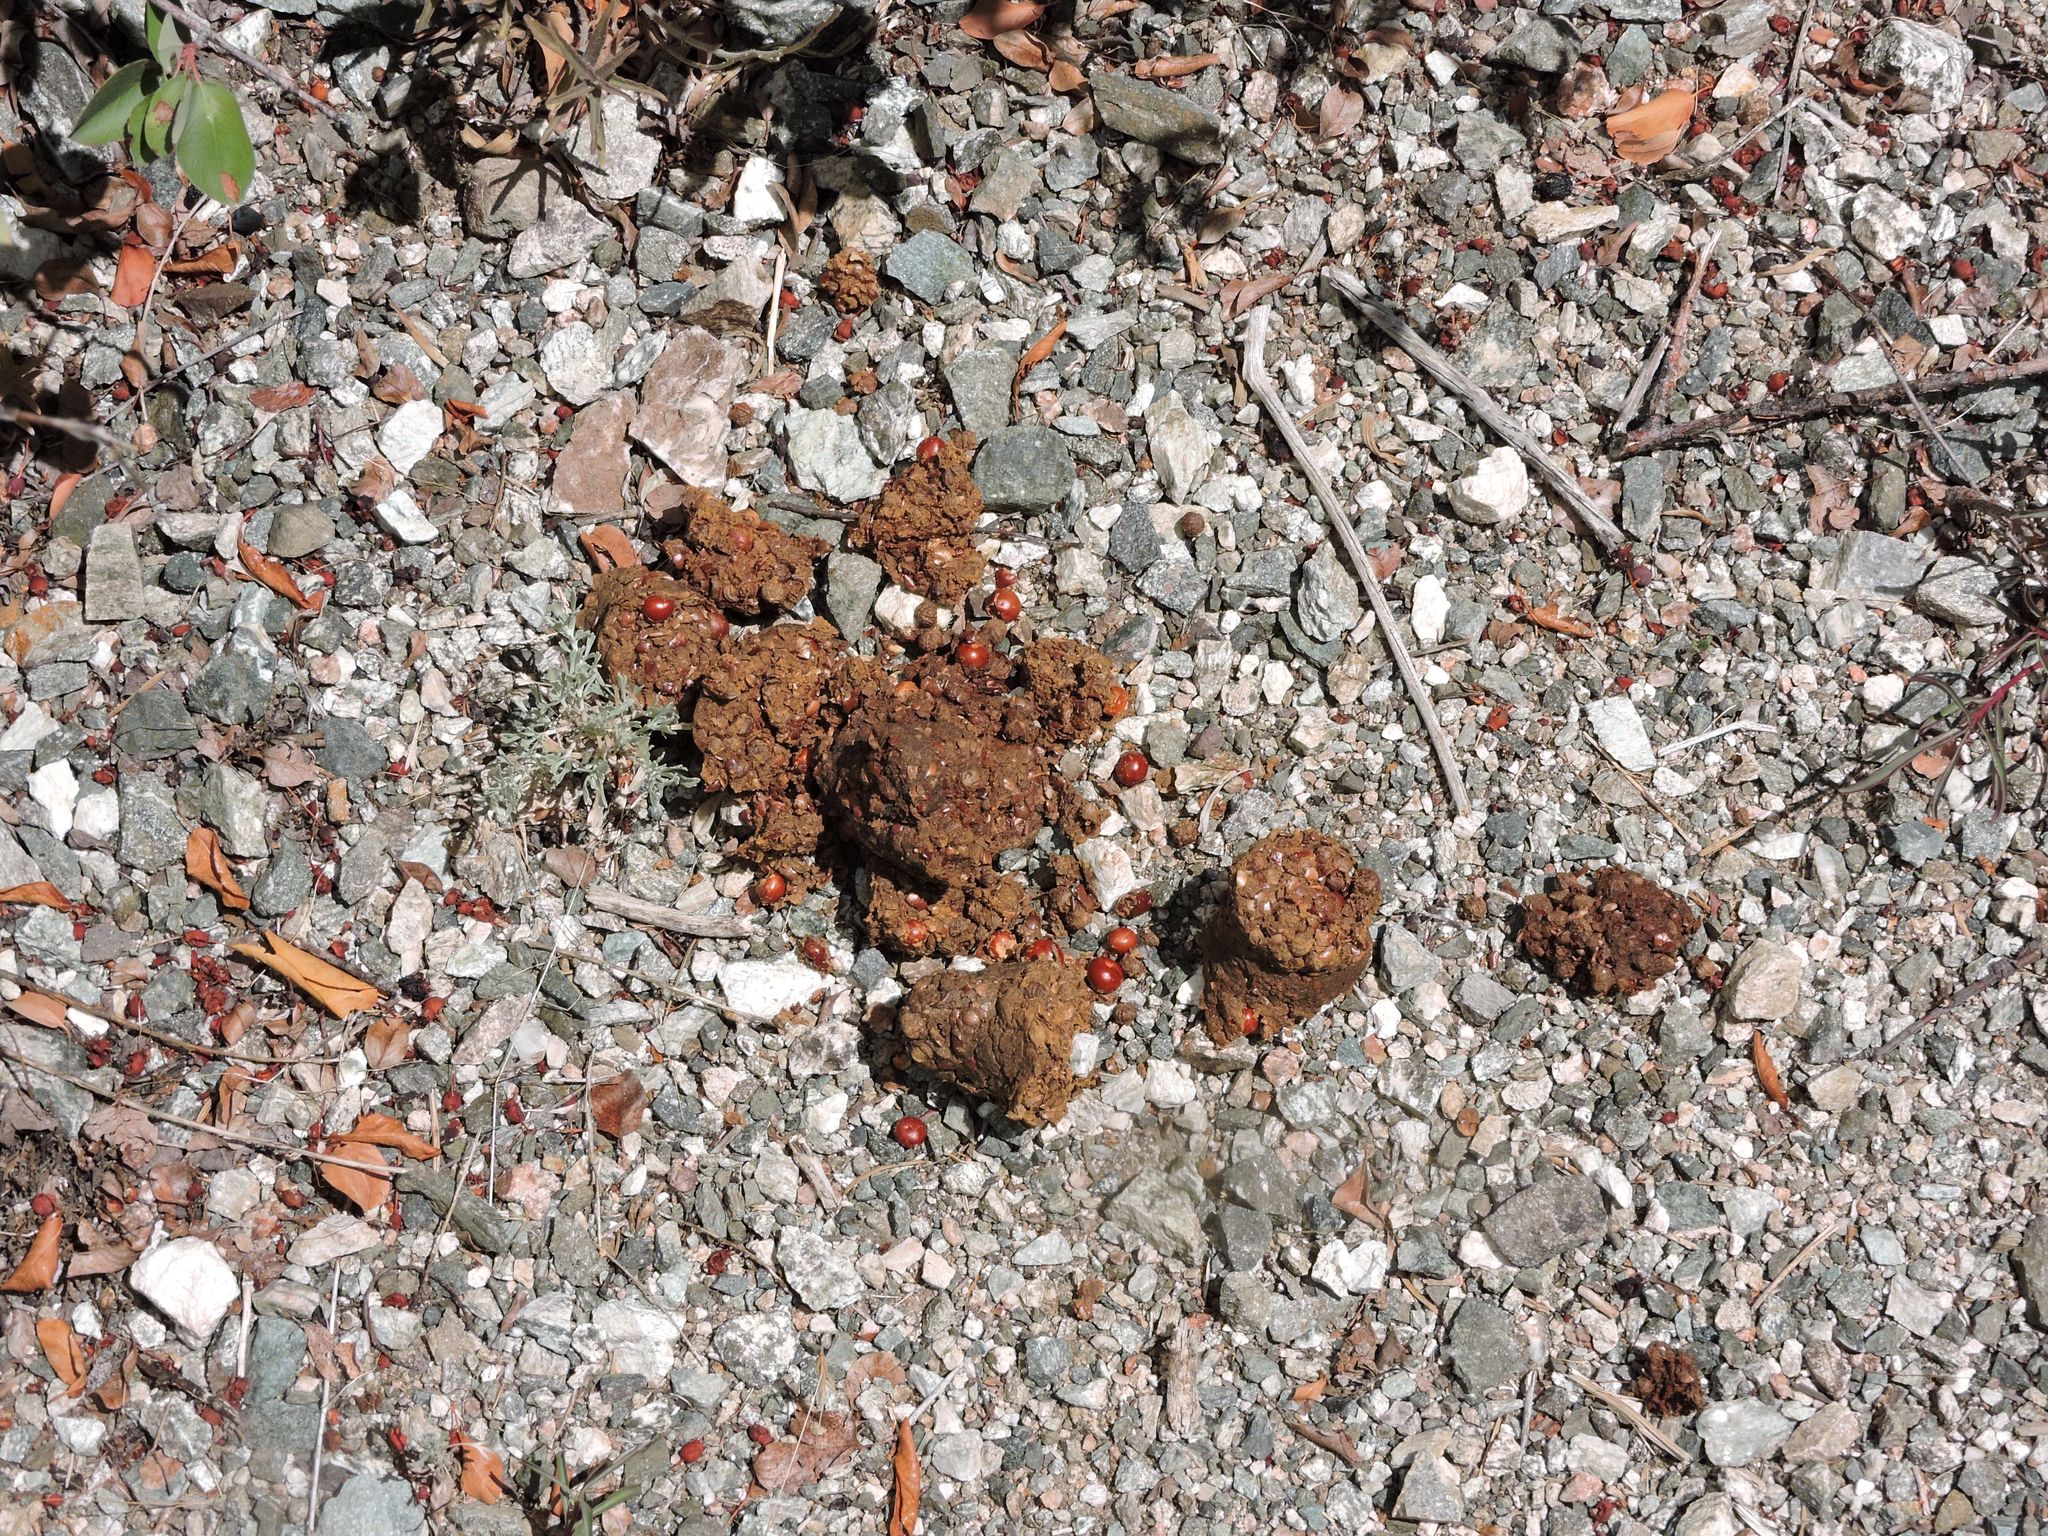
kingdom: Animalia
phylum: Chordata
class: Mammalia
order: Carnivora
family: Ursidae
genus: Ursus
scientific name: Ursus americanus
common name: American black bear
